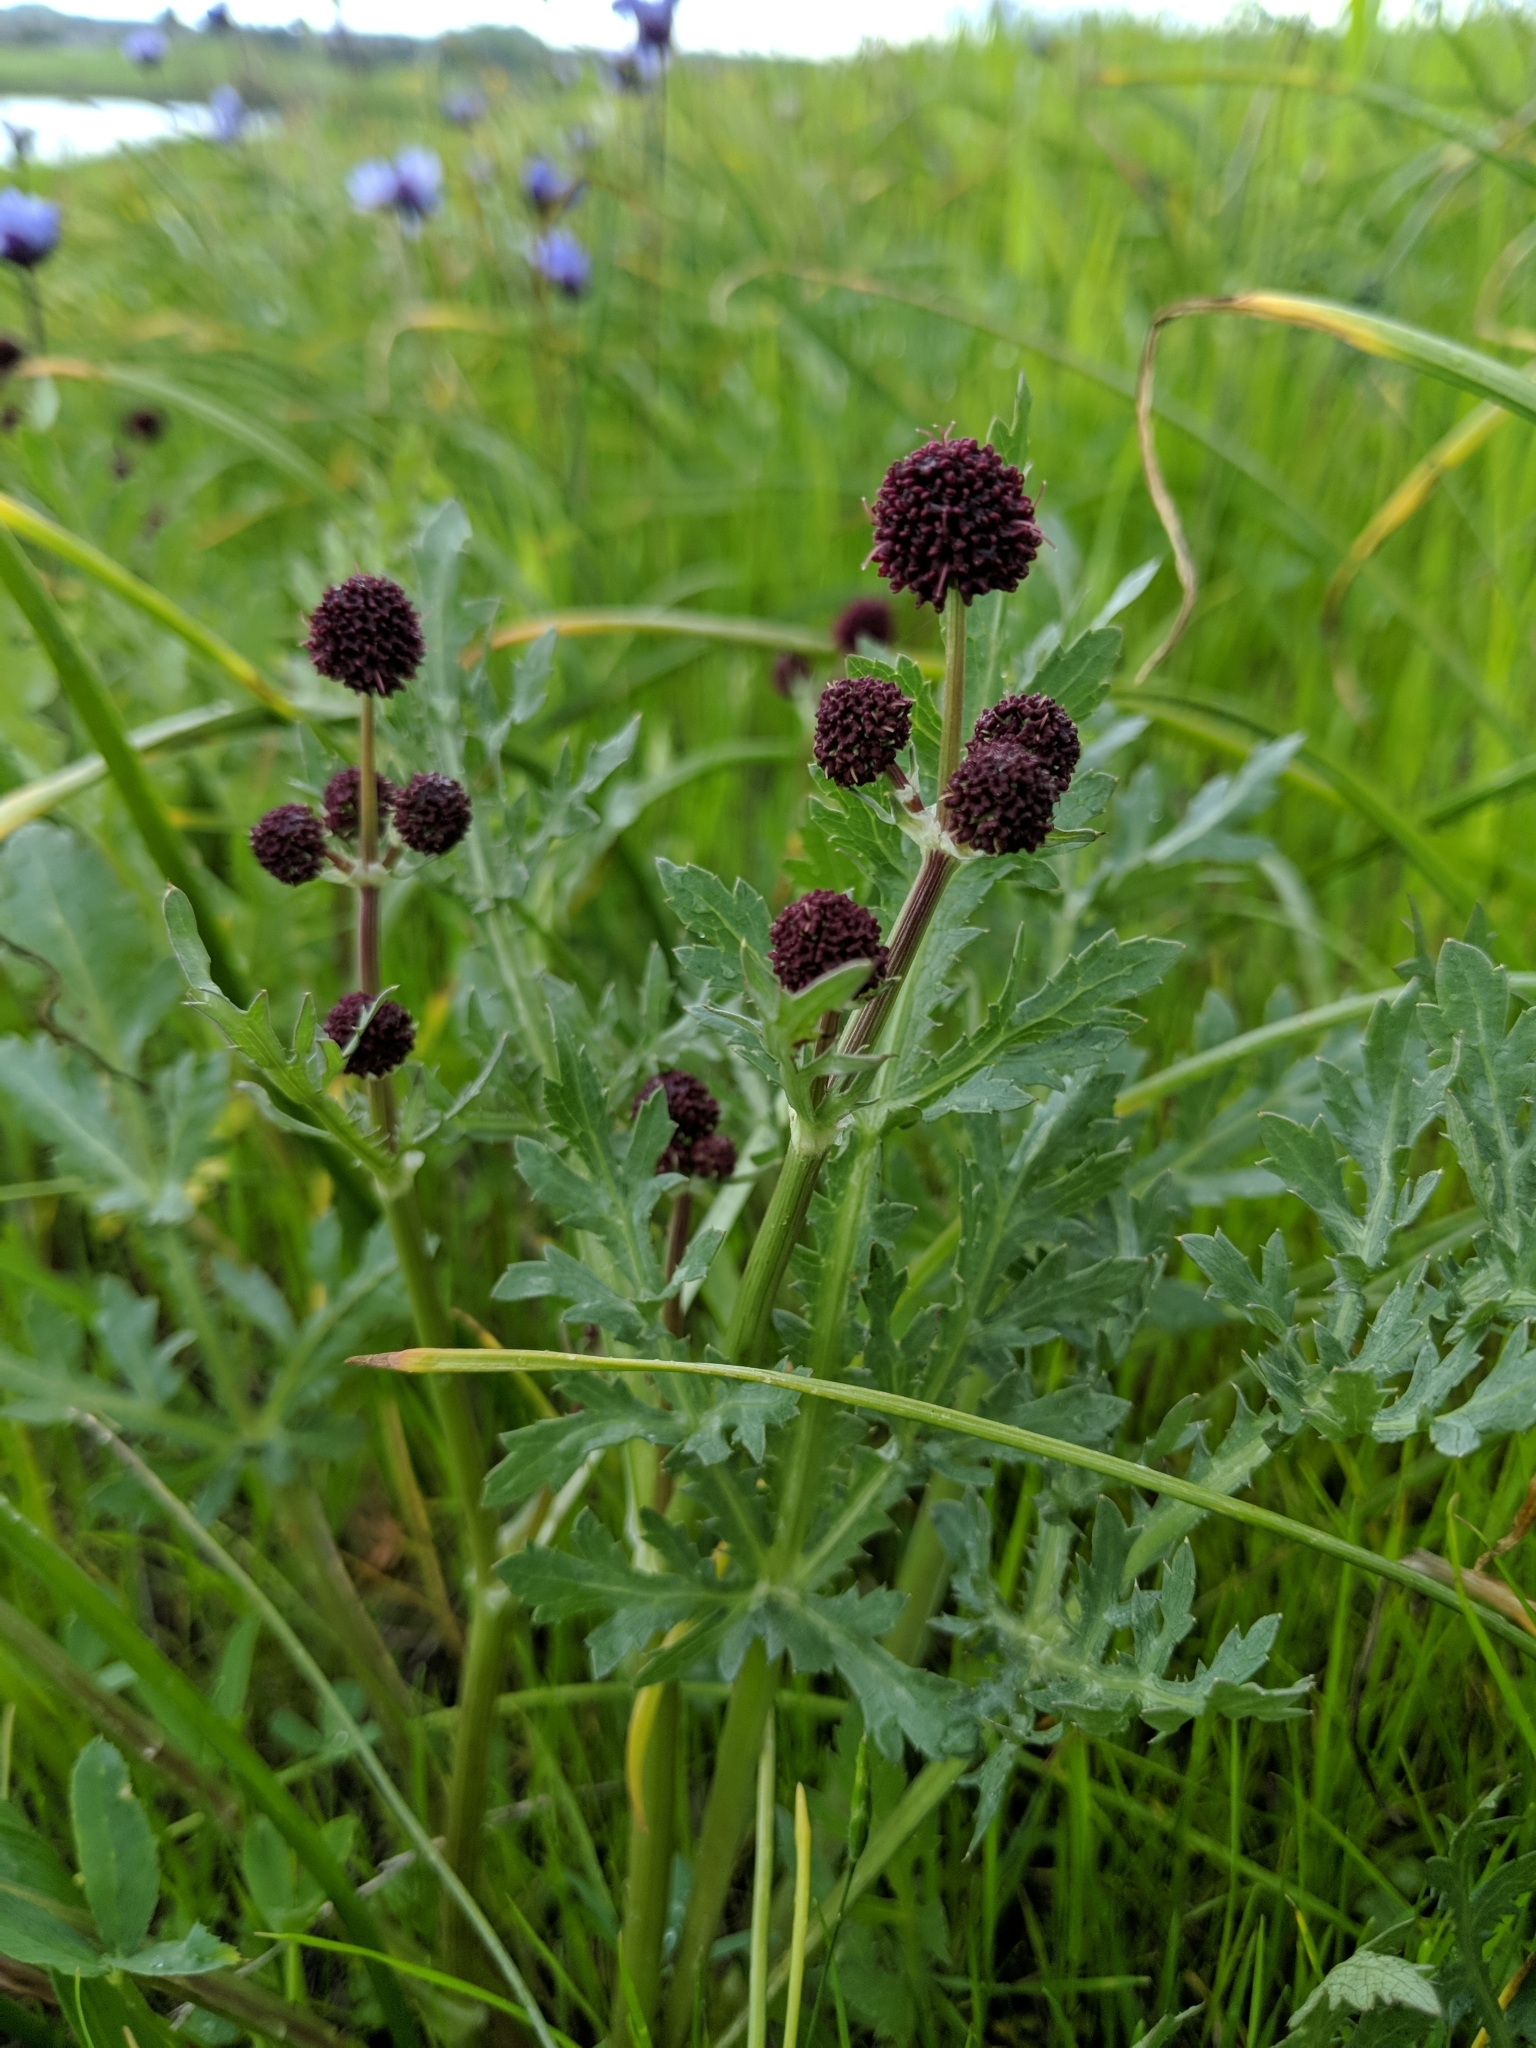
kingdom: Plantae
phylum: Tracheophyta
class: Magnoliopsida
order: Apiales
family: Apiaceae
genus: Sanicula
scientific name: Sanicula bipinnatifida
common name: Shoe-buttons
